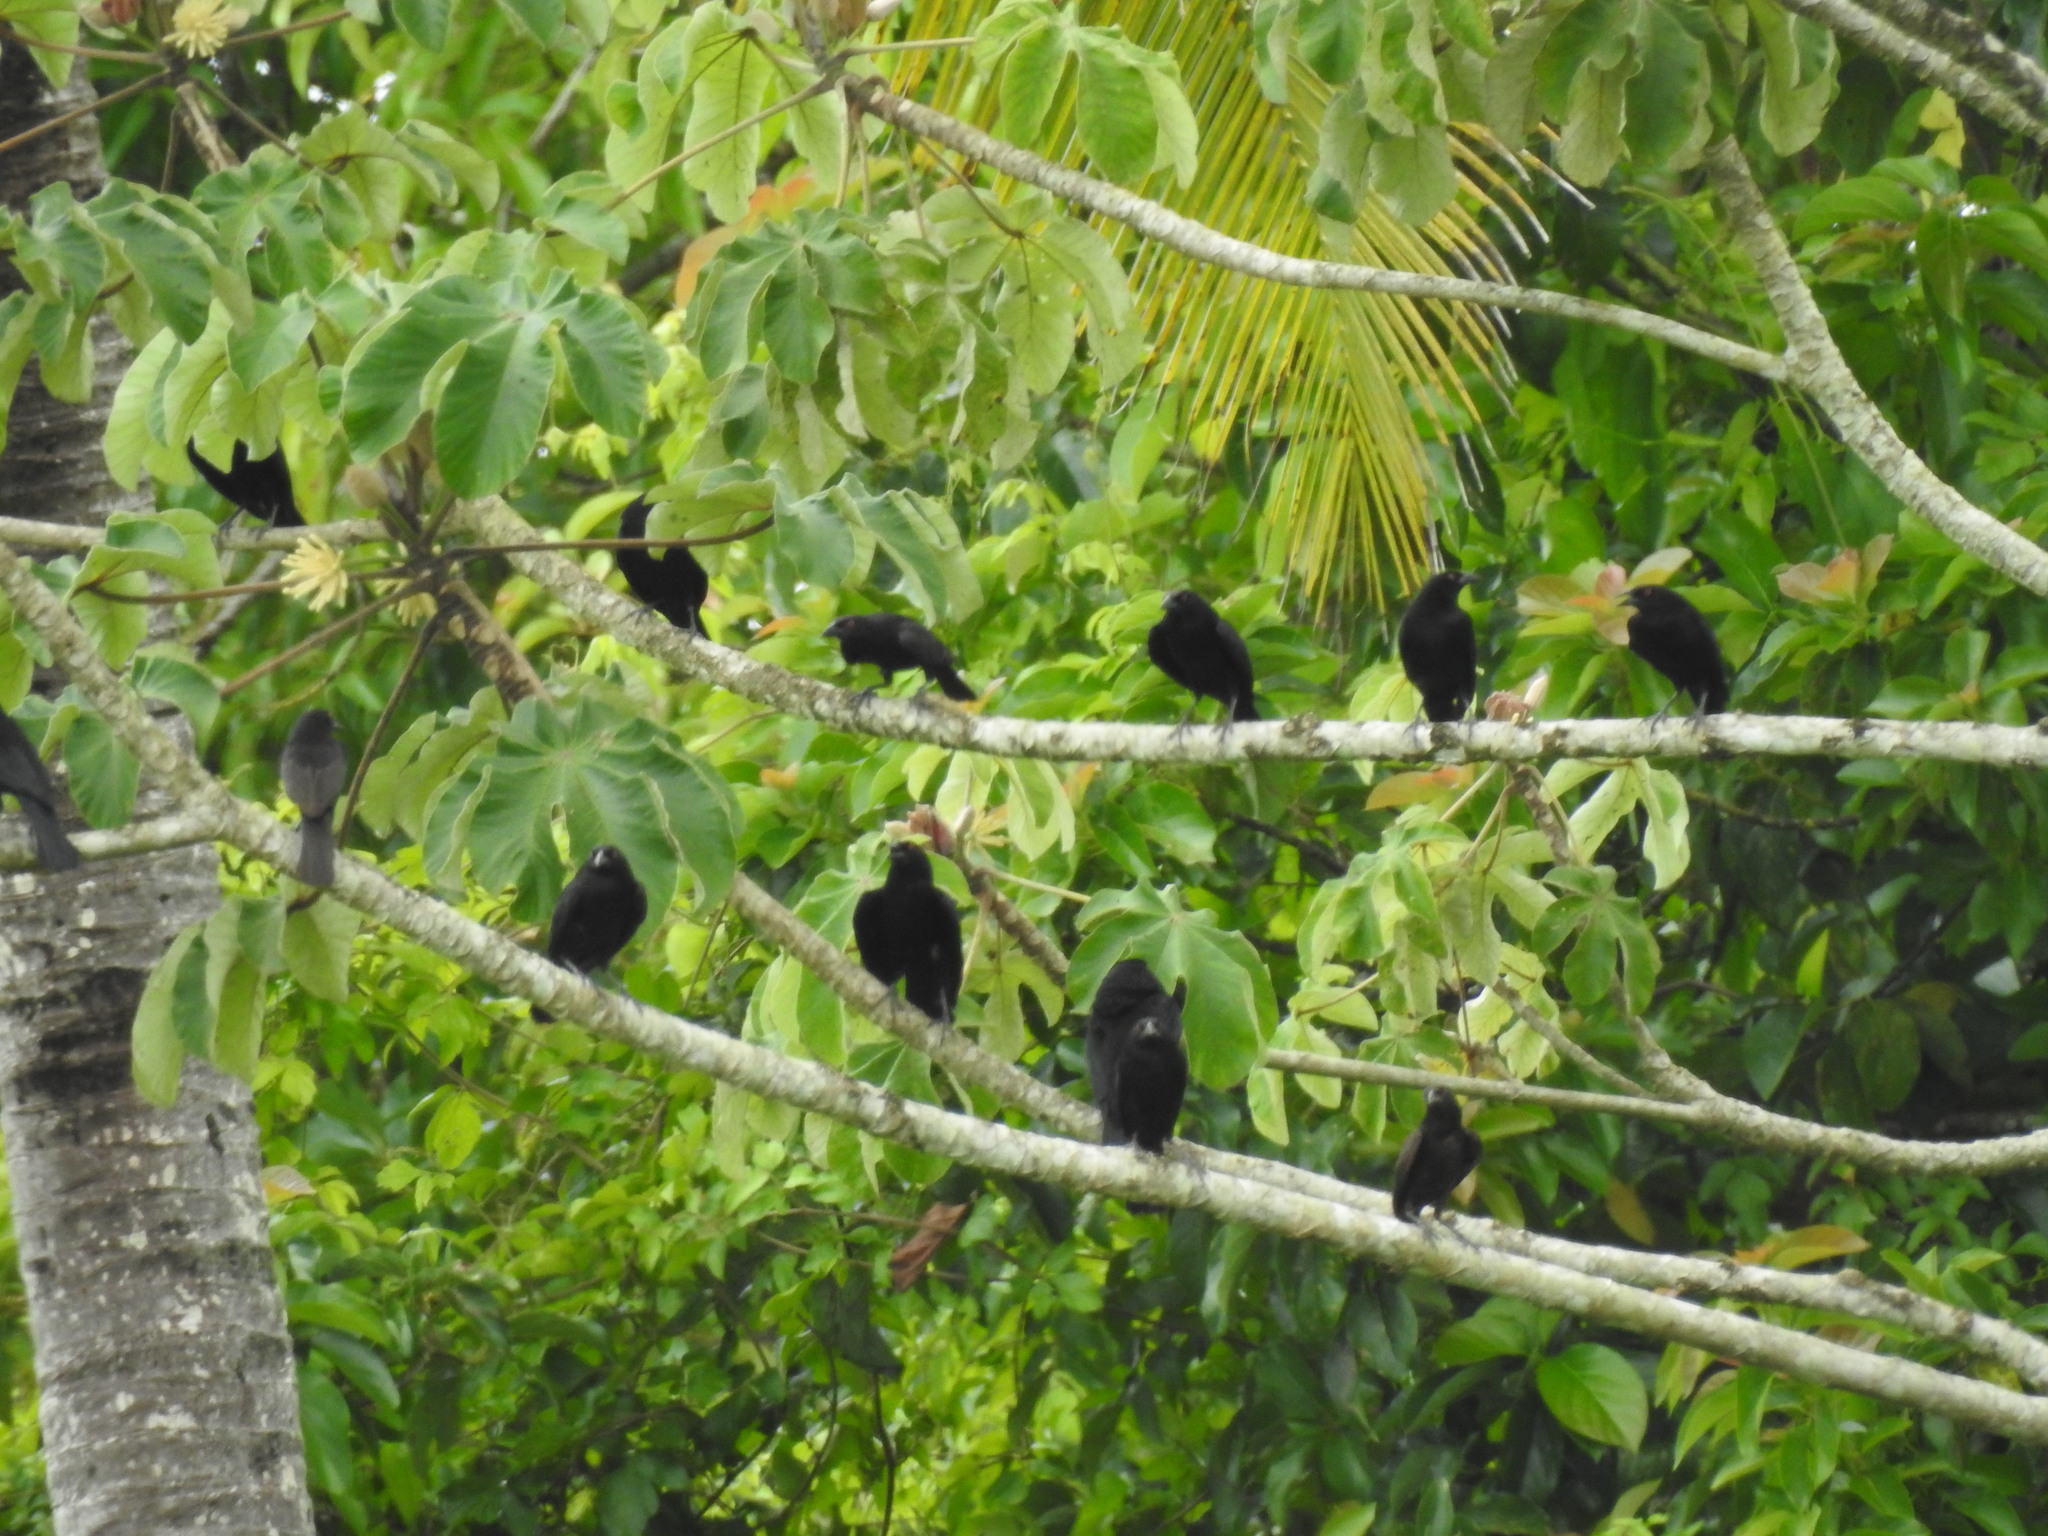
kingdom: Animalia
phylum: Chordata
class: Aves
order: Passeriformes
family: Icteridae
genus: Molothrus
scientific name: Molothrus aeneus
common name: Bronzed cowbird
